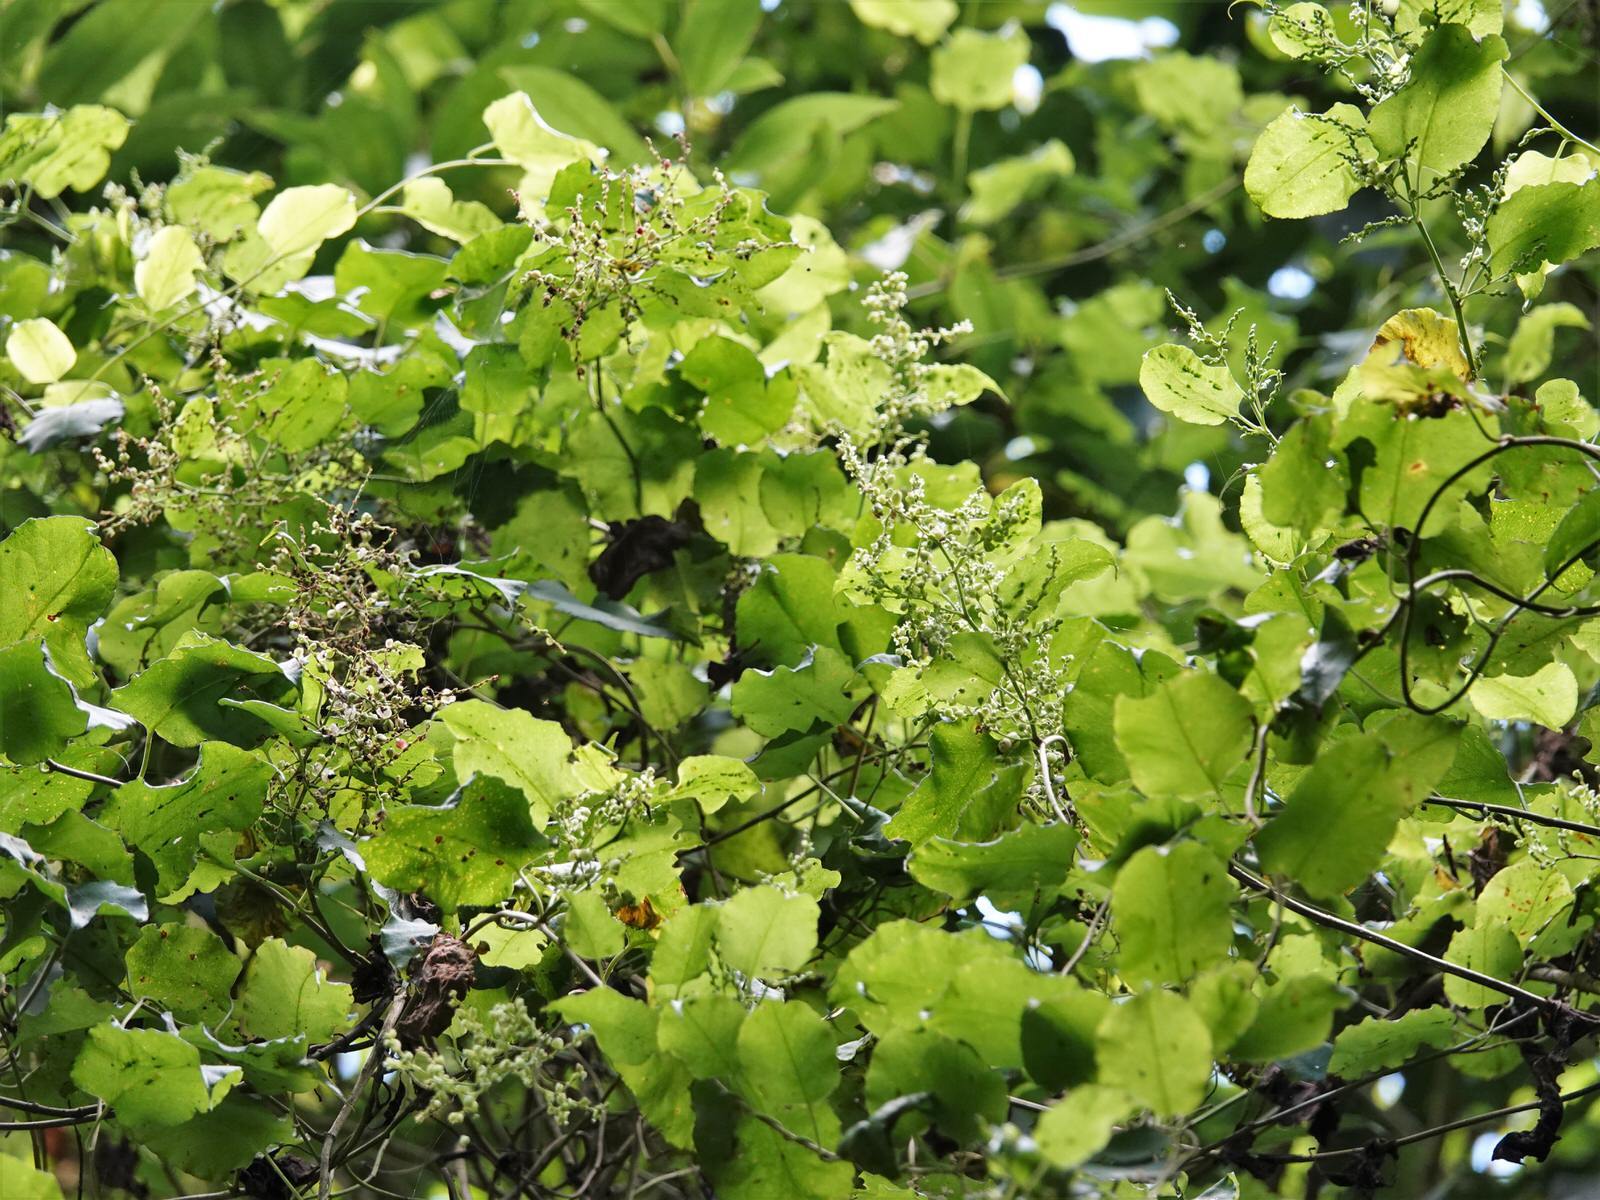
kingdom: Plantae
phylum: Tracheophyta
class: Magnoliopsida
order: Caryophyllales
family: Polygonaceae
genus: Muehlenbeckia
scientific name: Muehlenbeckia australis
